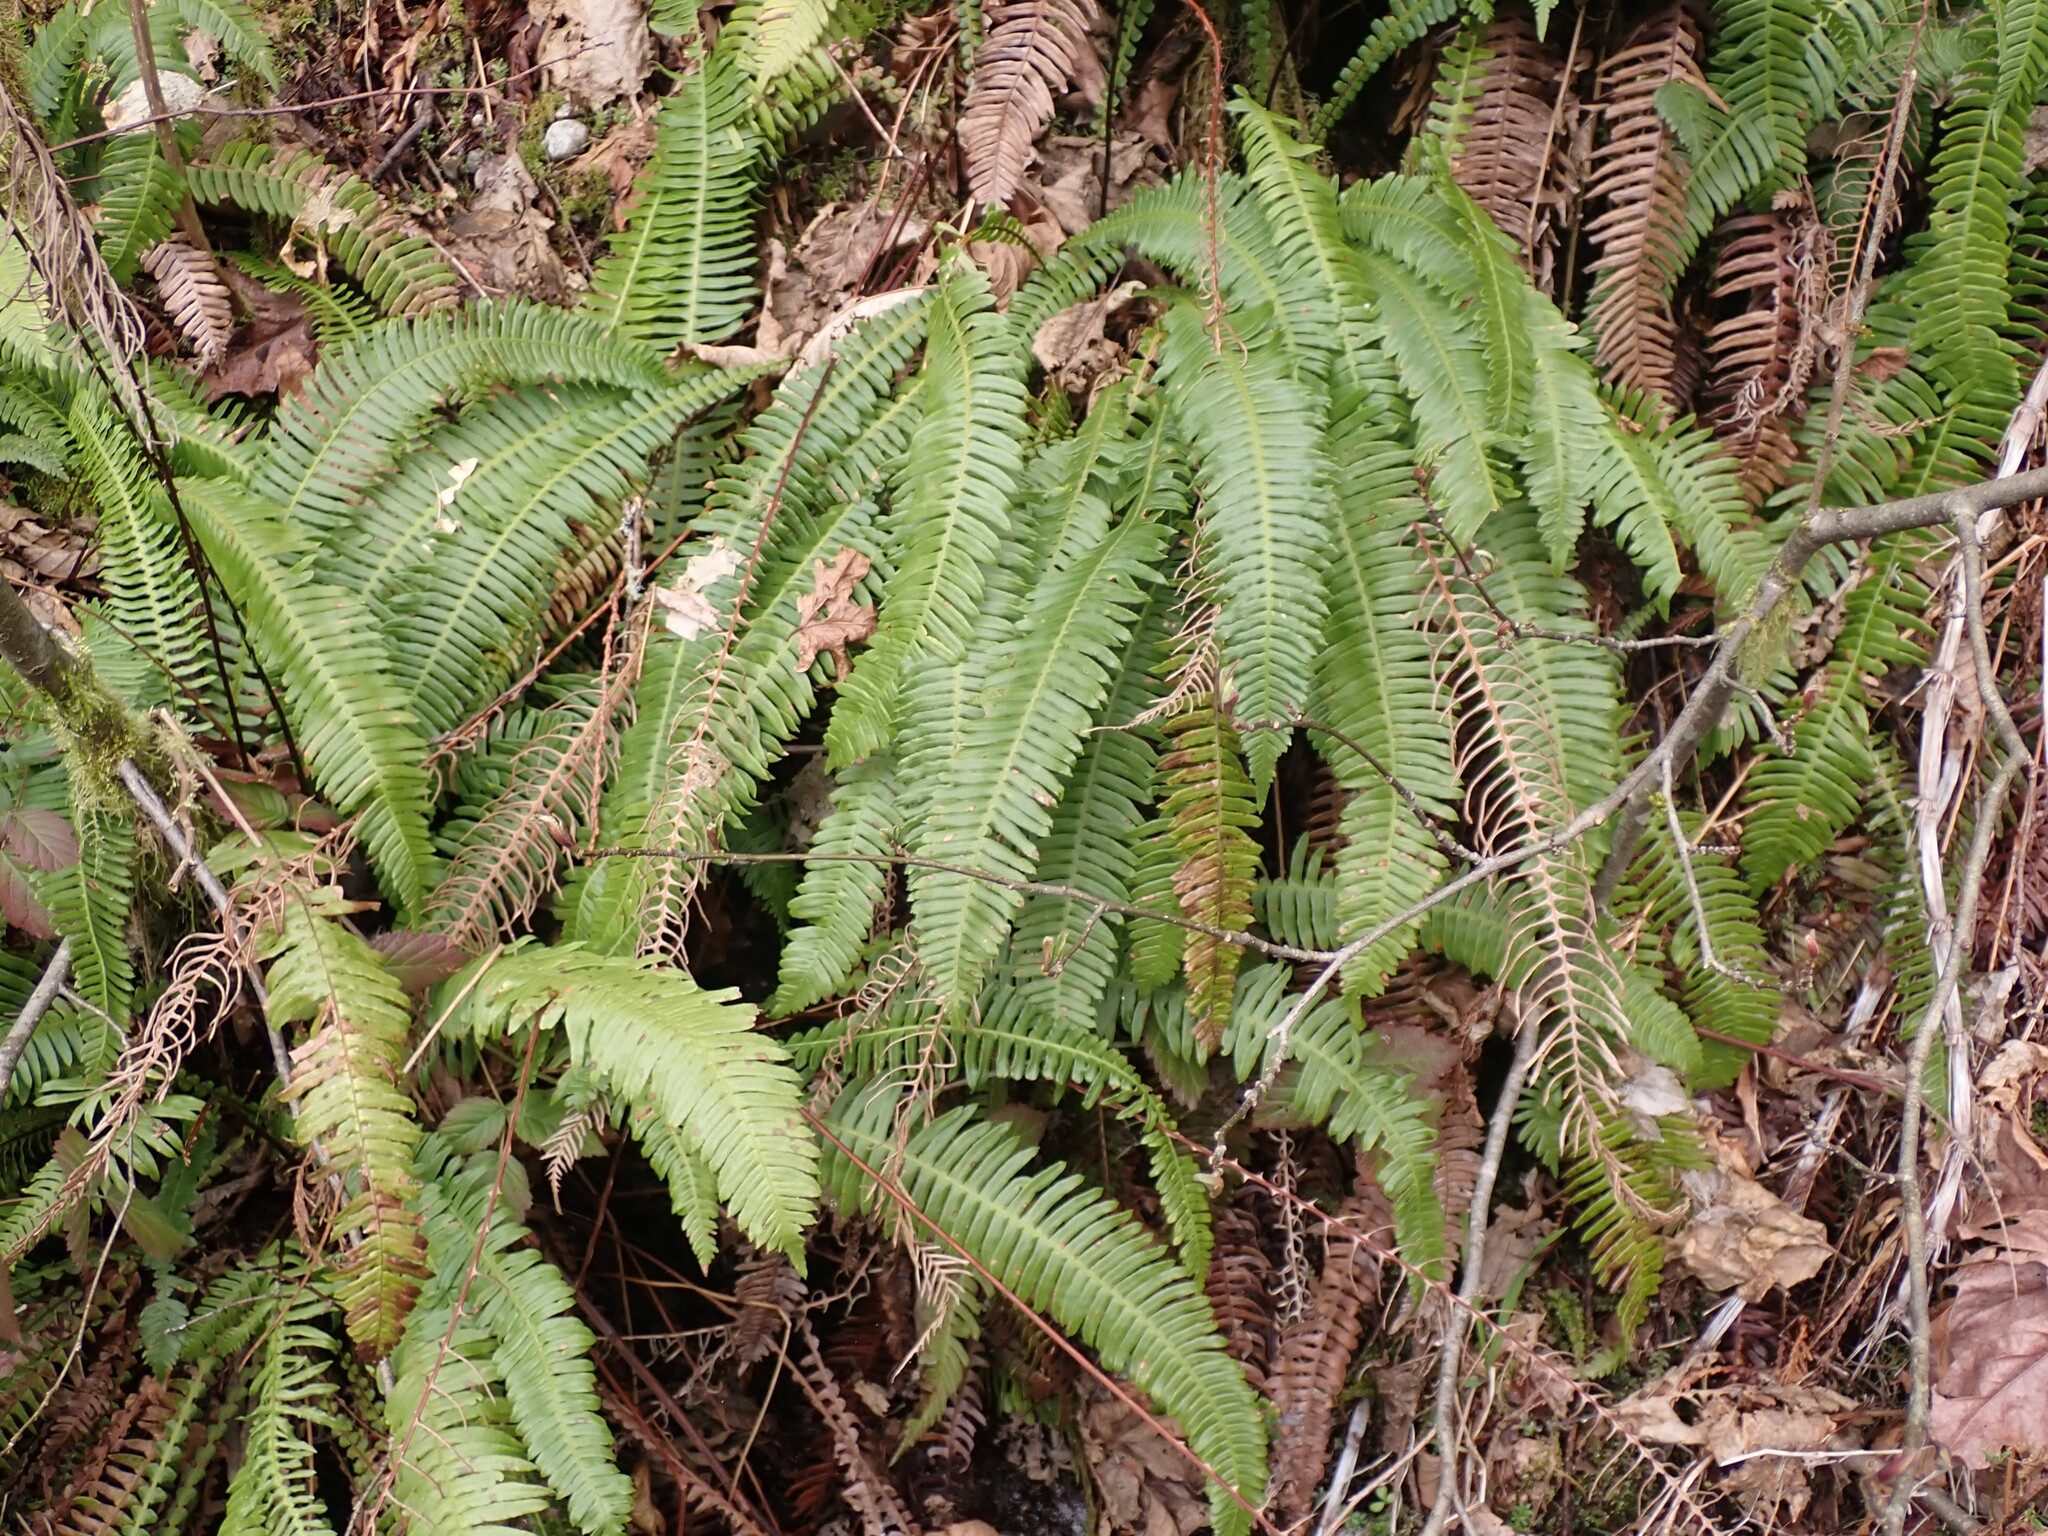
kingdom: Plantae
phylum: Tracheophyta
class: Polypodiopsida
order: Polypodiales
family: Blechnaceae
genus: Struthiopteris
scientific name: Struthiopteris spicant
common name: Deer fern
